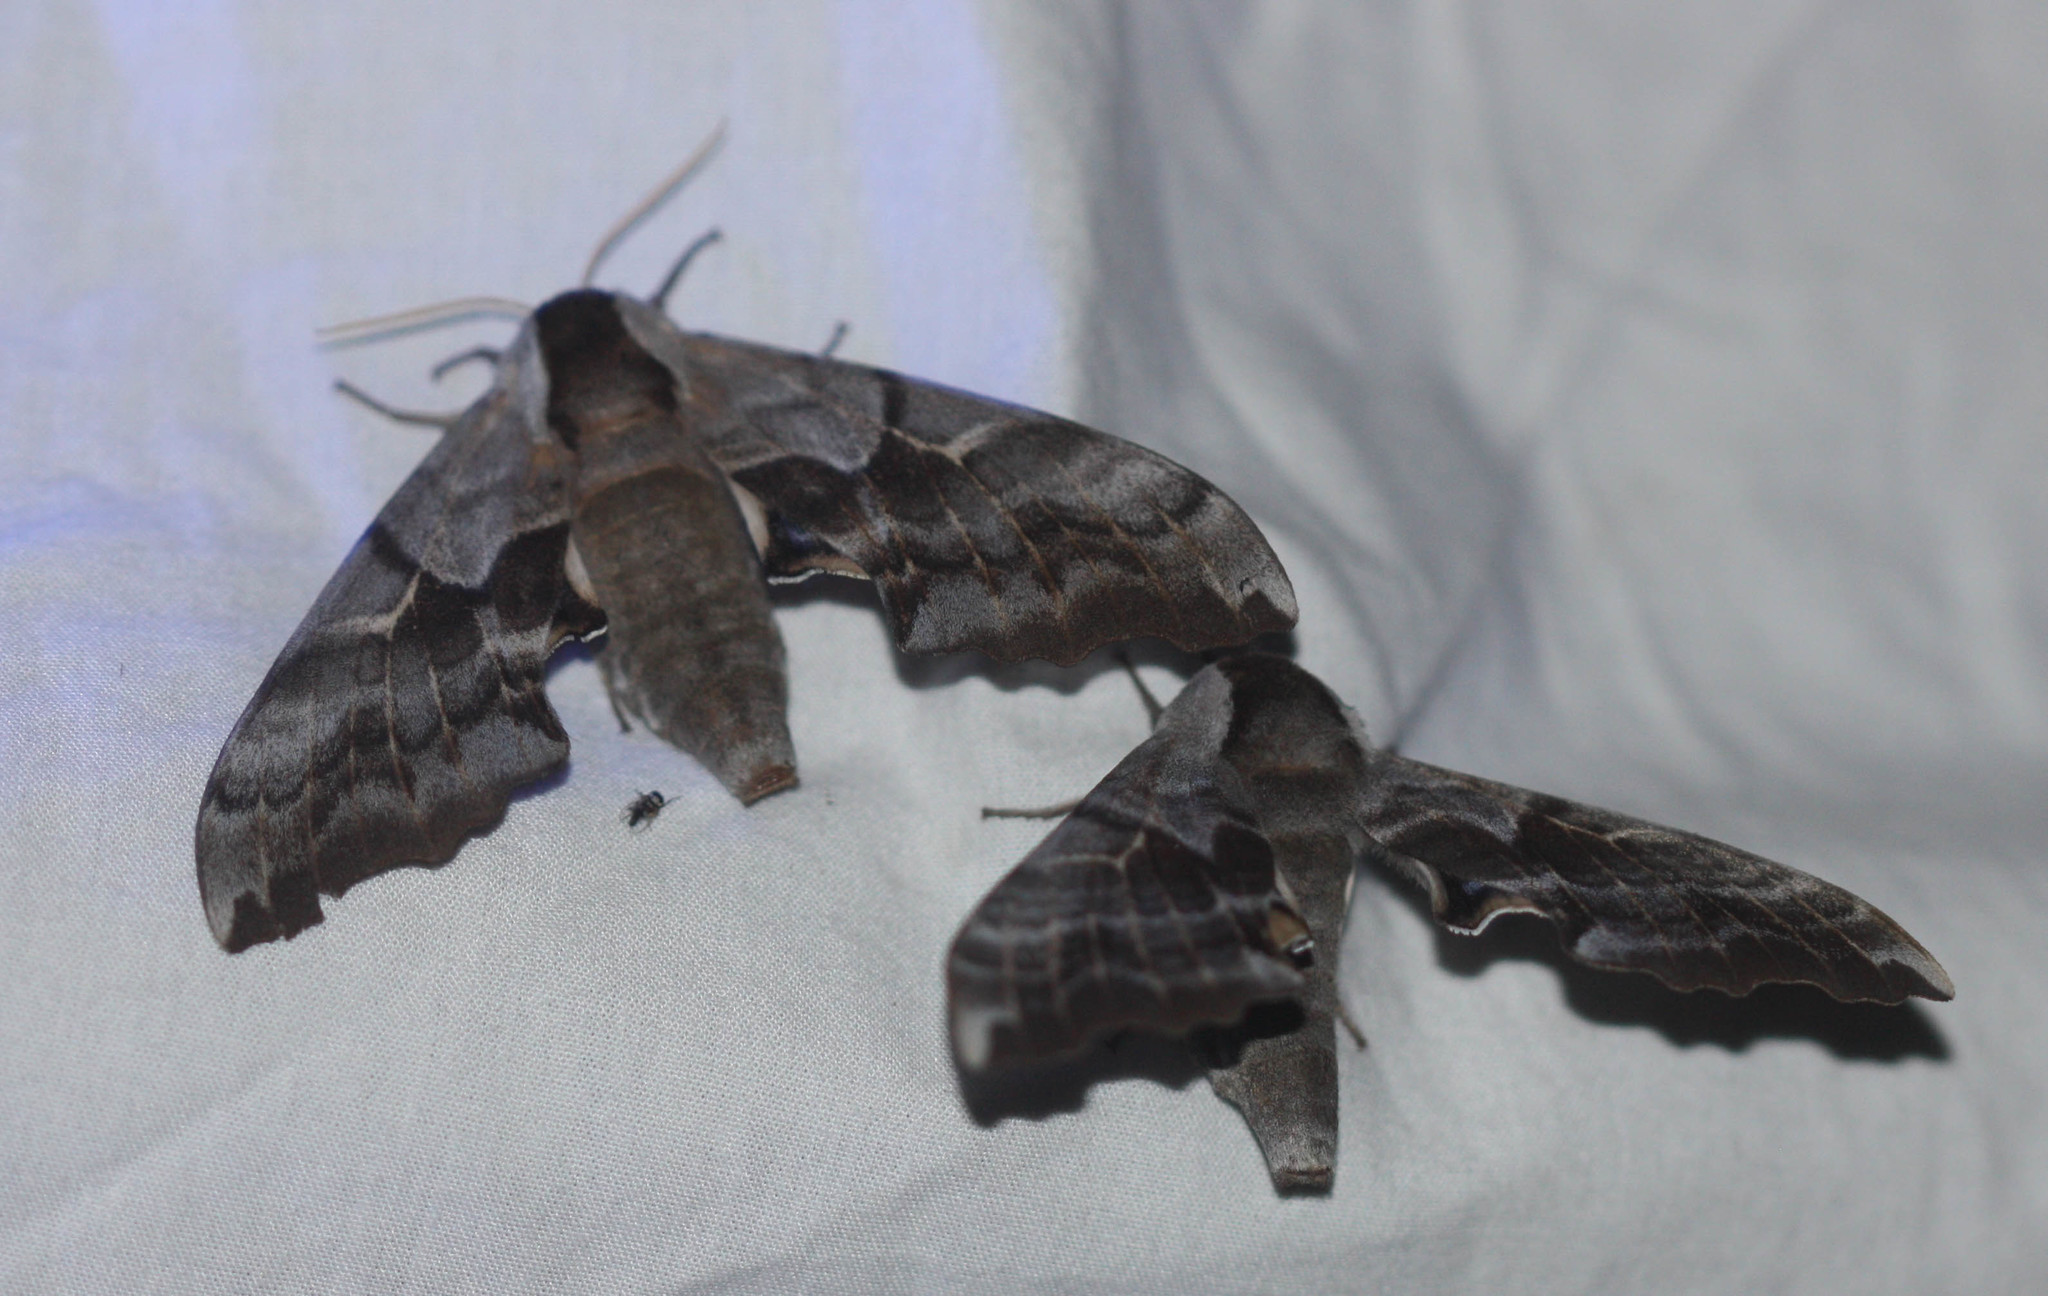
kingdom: Animalia
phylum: Arthropoda
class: Insecta
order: Lepidoptera
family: Sphingidae
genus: Smerinthus
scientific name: Smerinthus cerisyi
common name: Cerisy's sphinx moth
